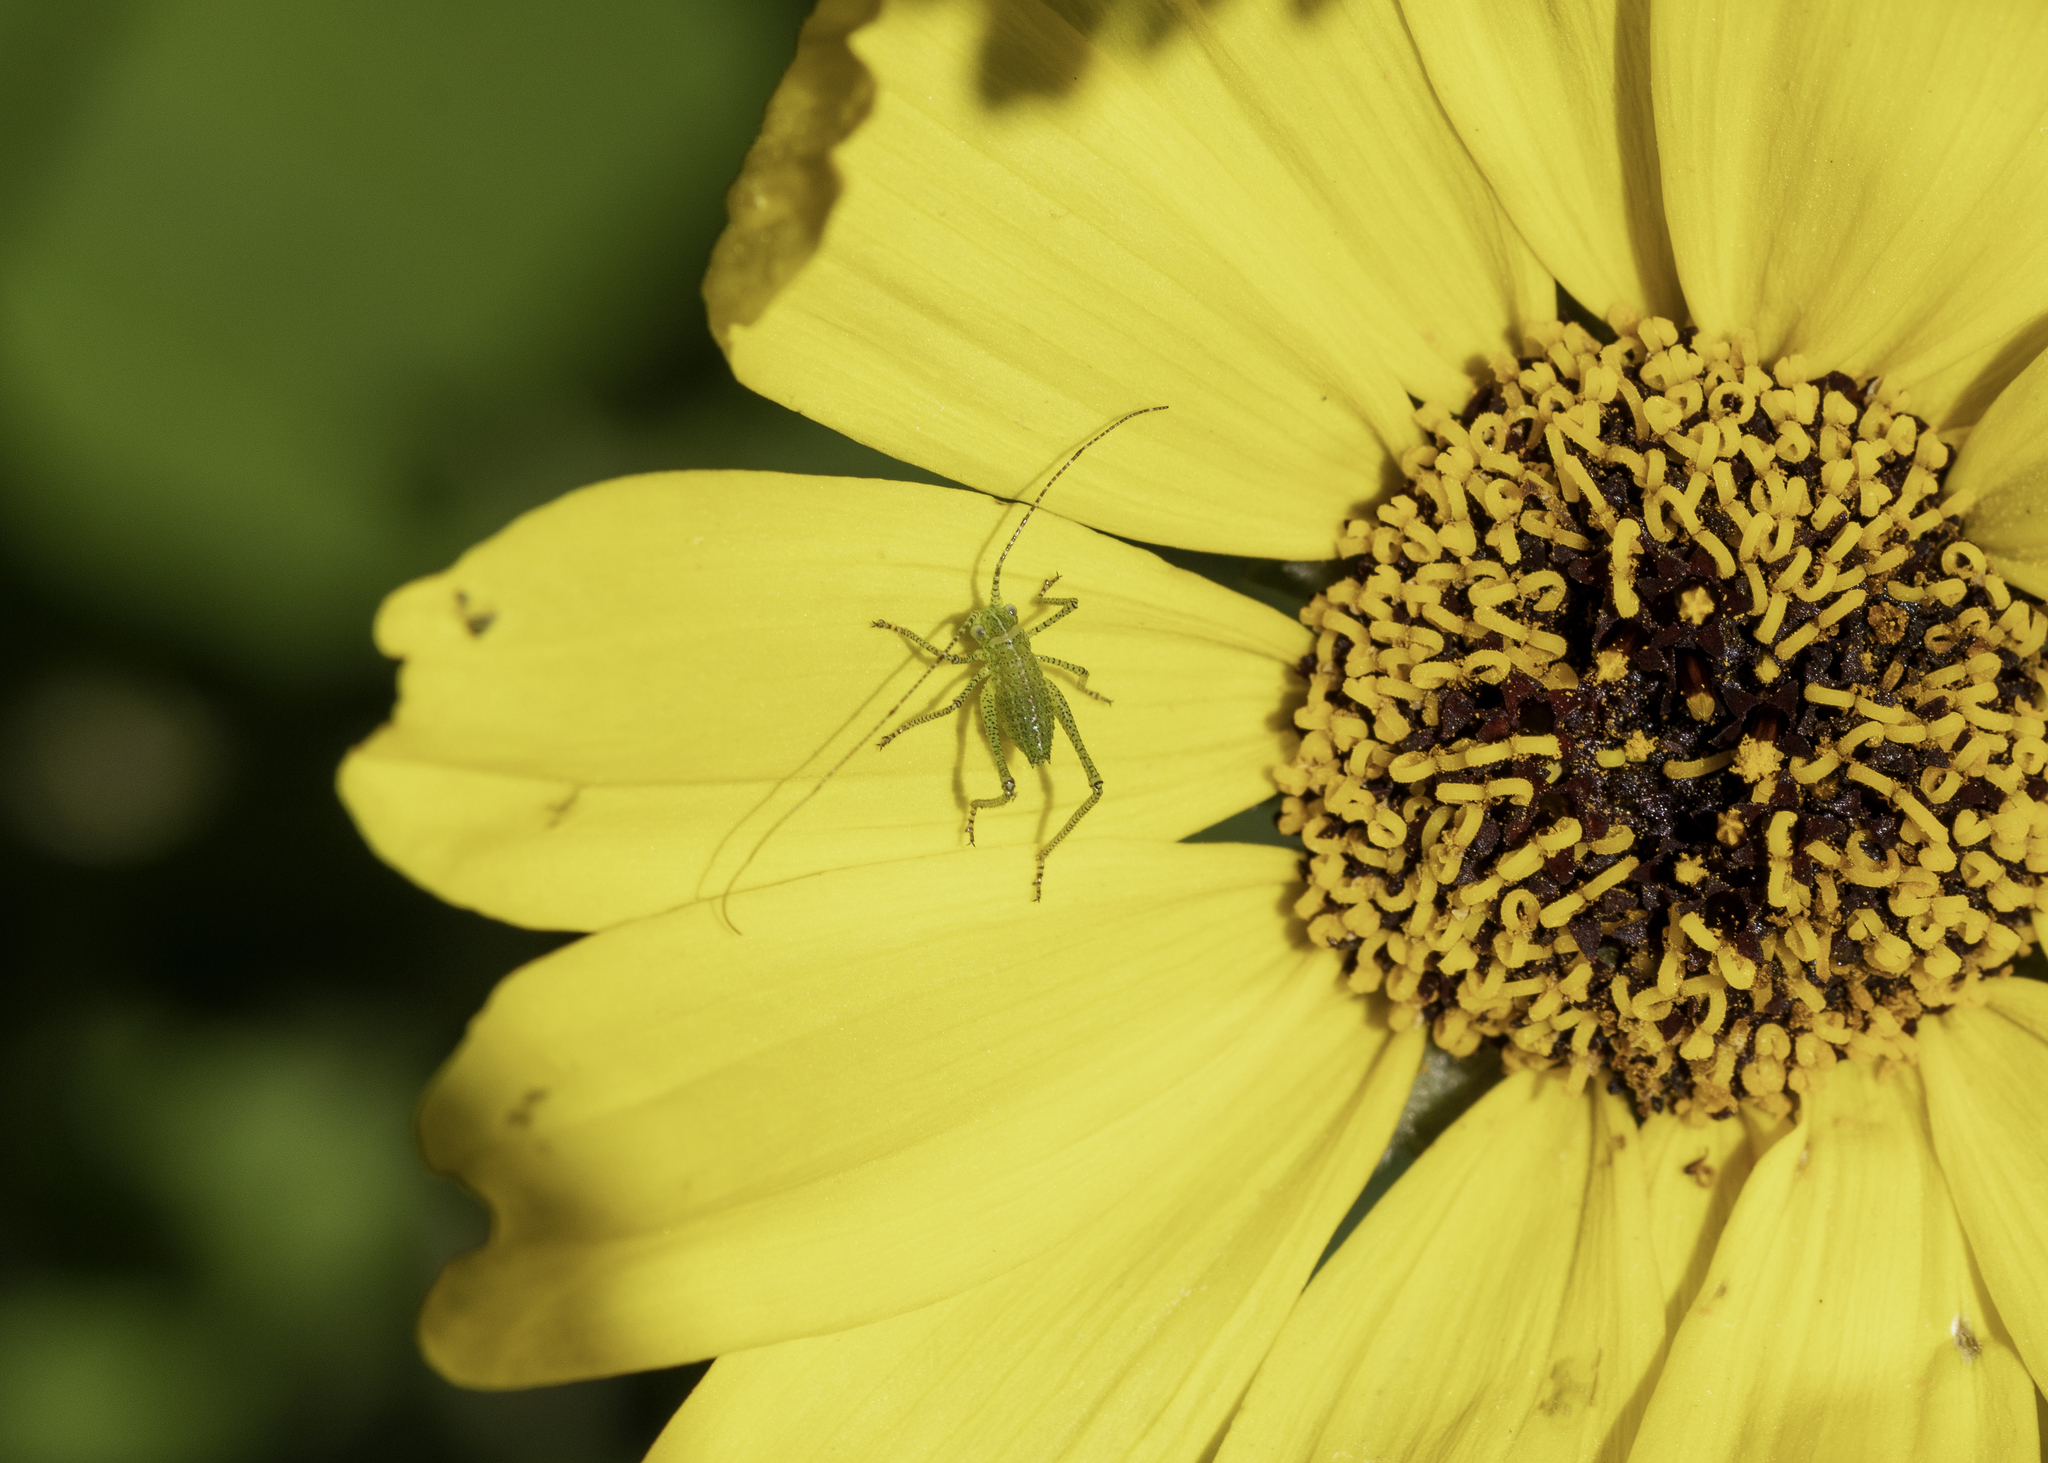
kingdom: Animalia
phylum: Arthropoda
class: Insecta
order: Orthoptera
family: Tettigoniidae
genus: Platylyra
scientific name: Platylyra californica
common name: Chaparral false katydid
